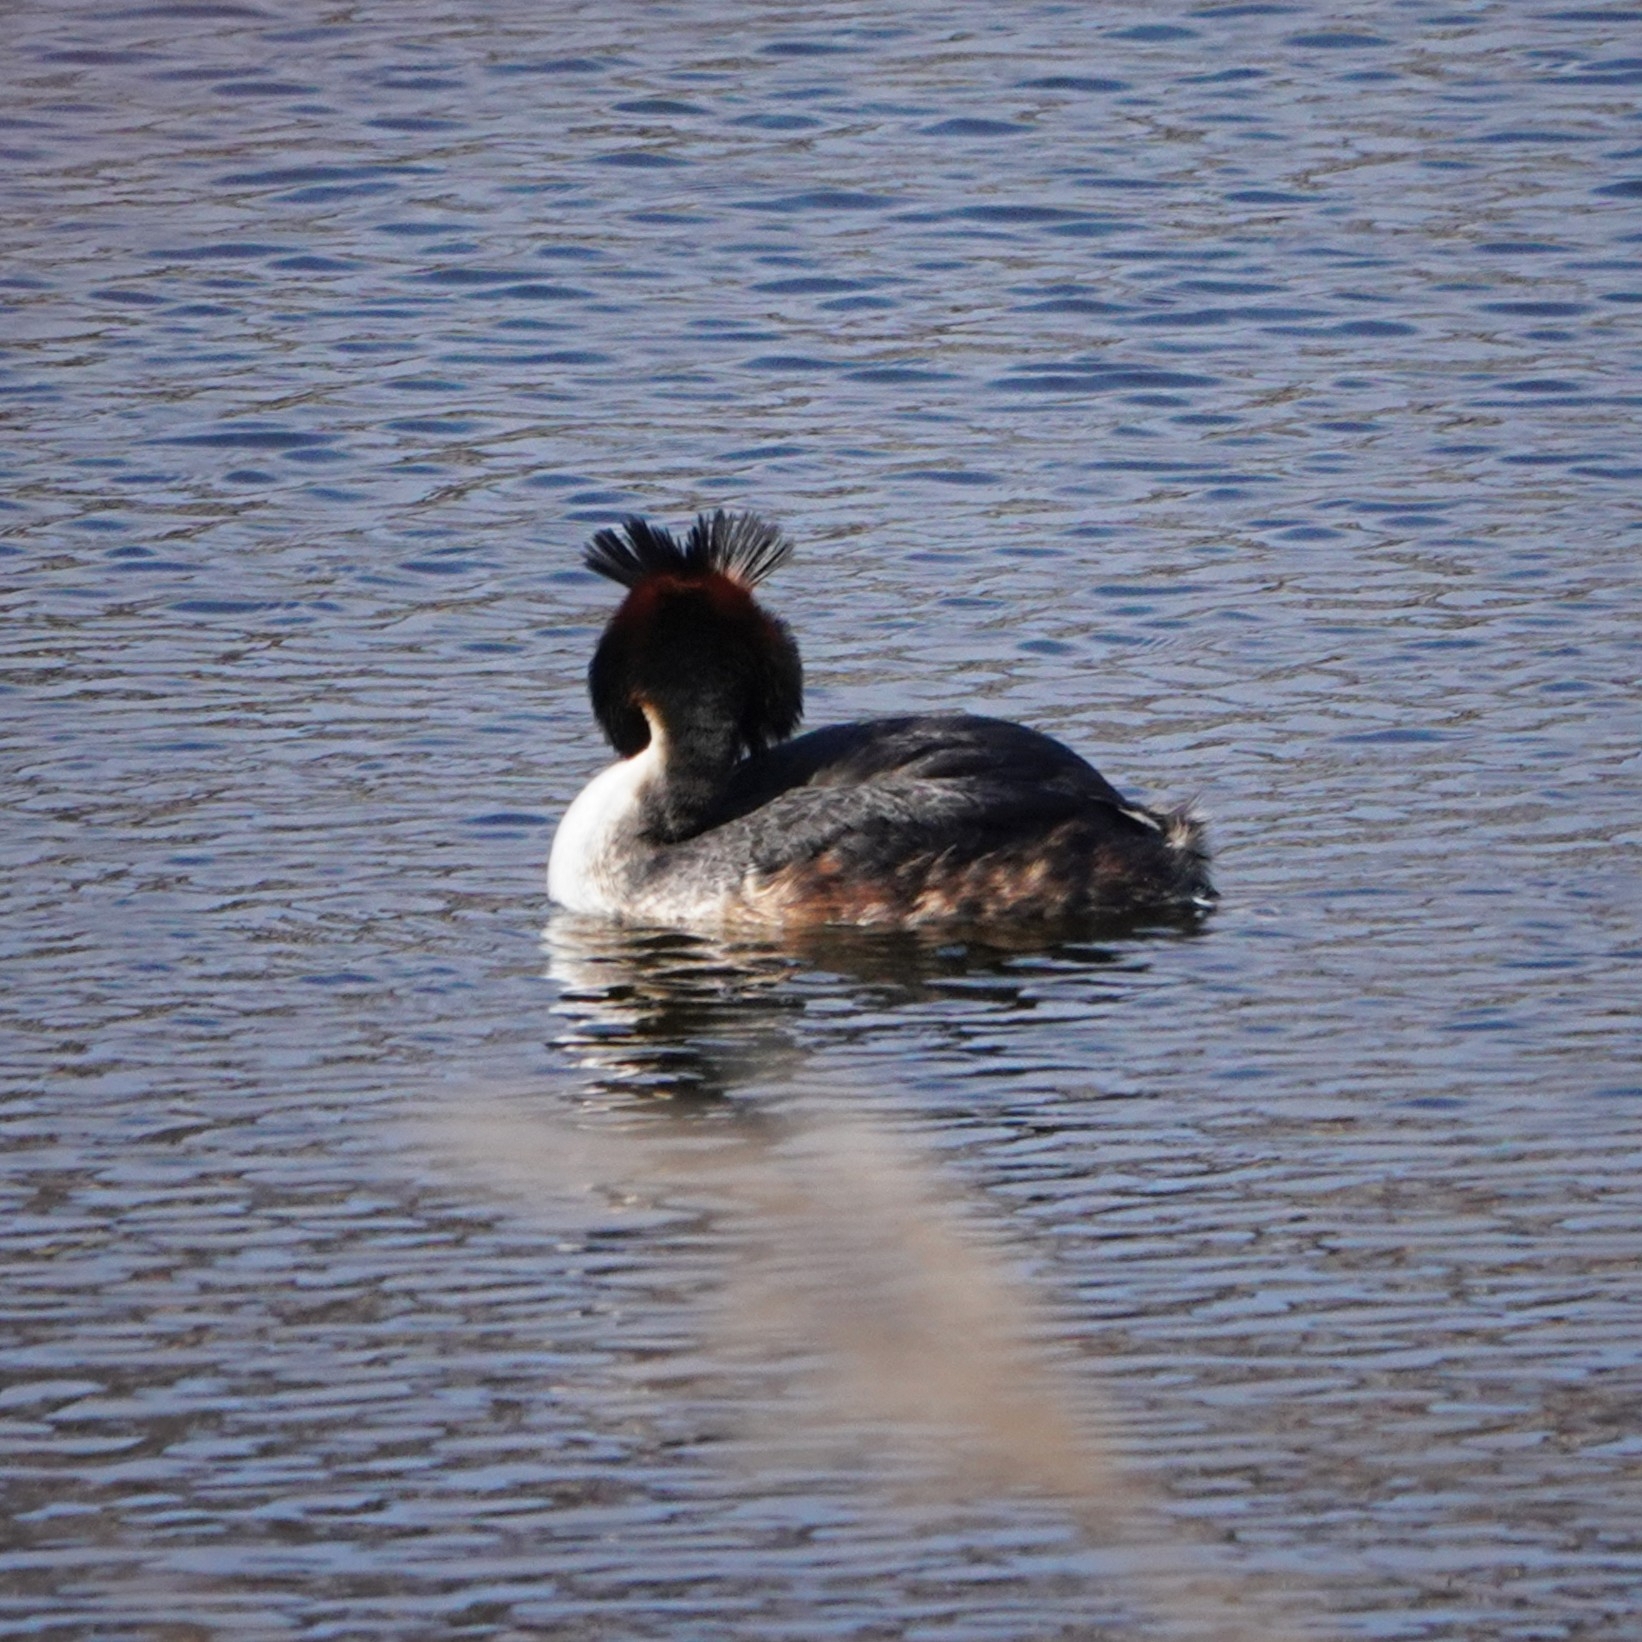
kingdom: Animalia
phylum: Chordata
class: Aves
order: Podicipediformes
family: Podicipedidae
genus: Podiceps
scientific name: Podiceps cristatus
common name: Great crested grebe
